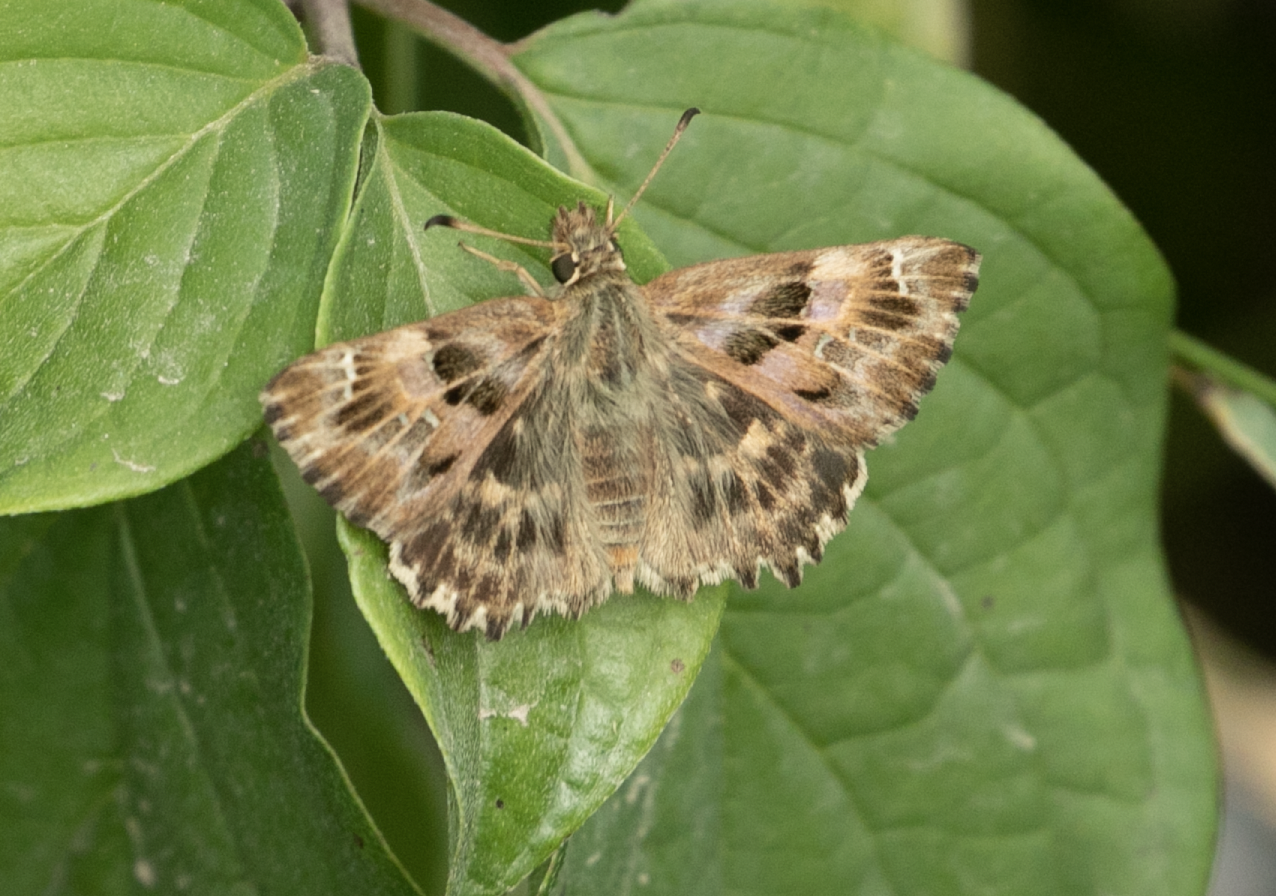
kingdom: Animalia
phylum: Arthropoda
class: Insecta
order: Lepidoptera
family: Hesperiidae
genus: Carcharodus
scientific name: Carcharodus alceae
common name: Mallow skipper
